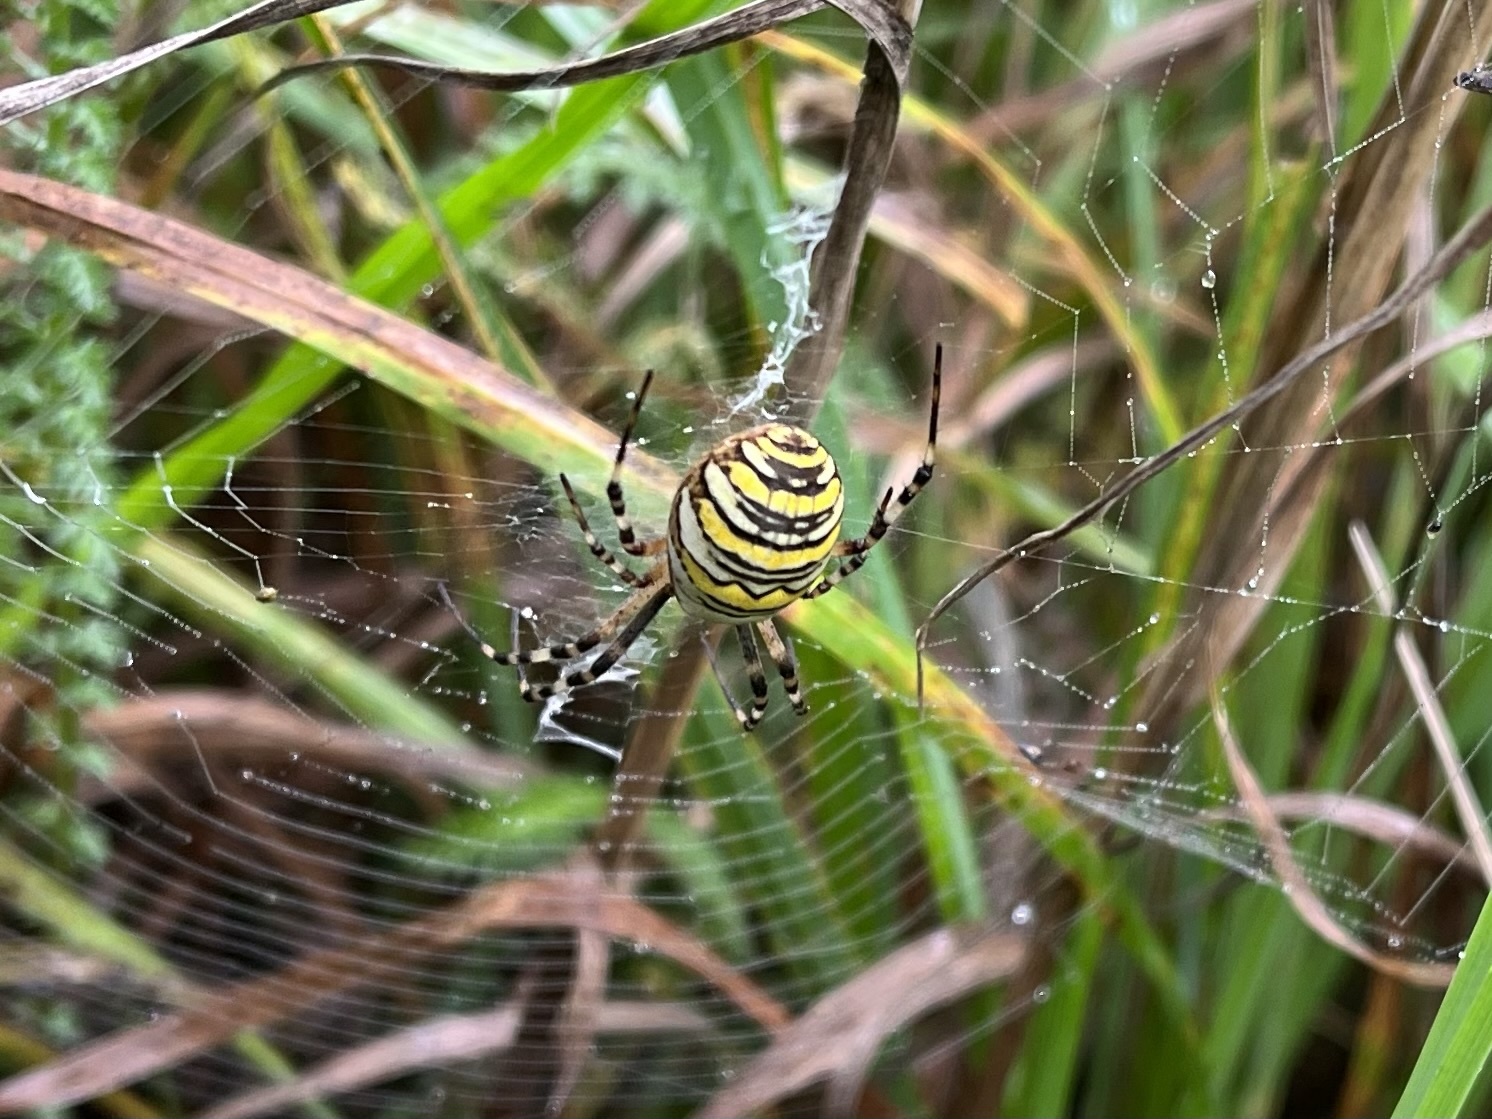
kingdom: Animalia
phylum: Arthropoda
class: Arachnida
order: Araneae
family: Araneidae
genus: Argiope
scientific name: Argiope bruennichi
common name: Wasp spider
